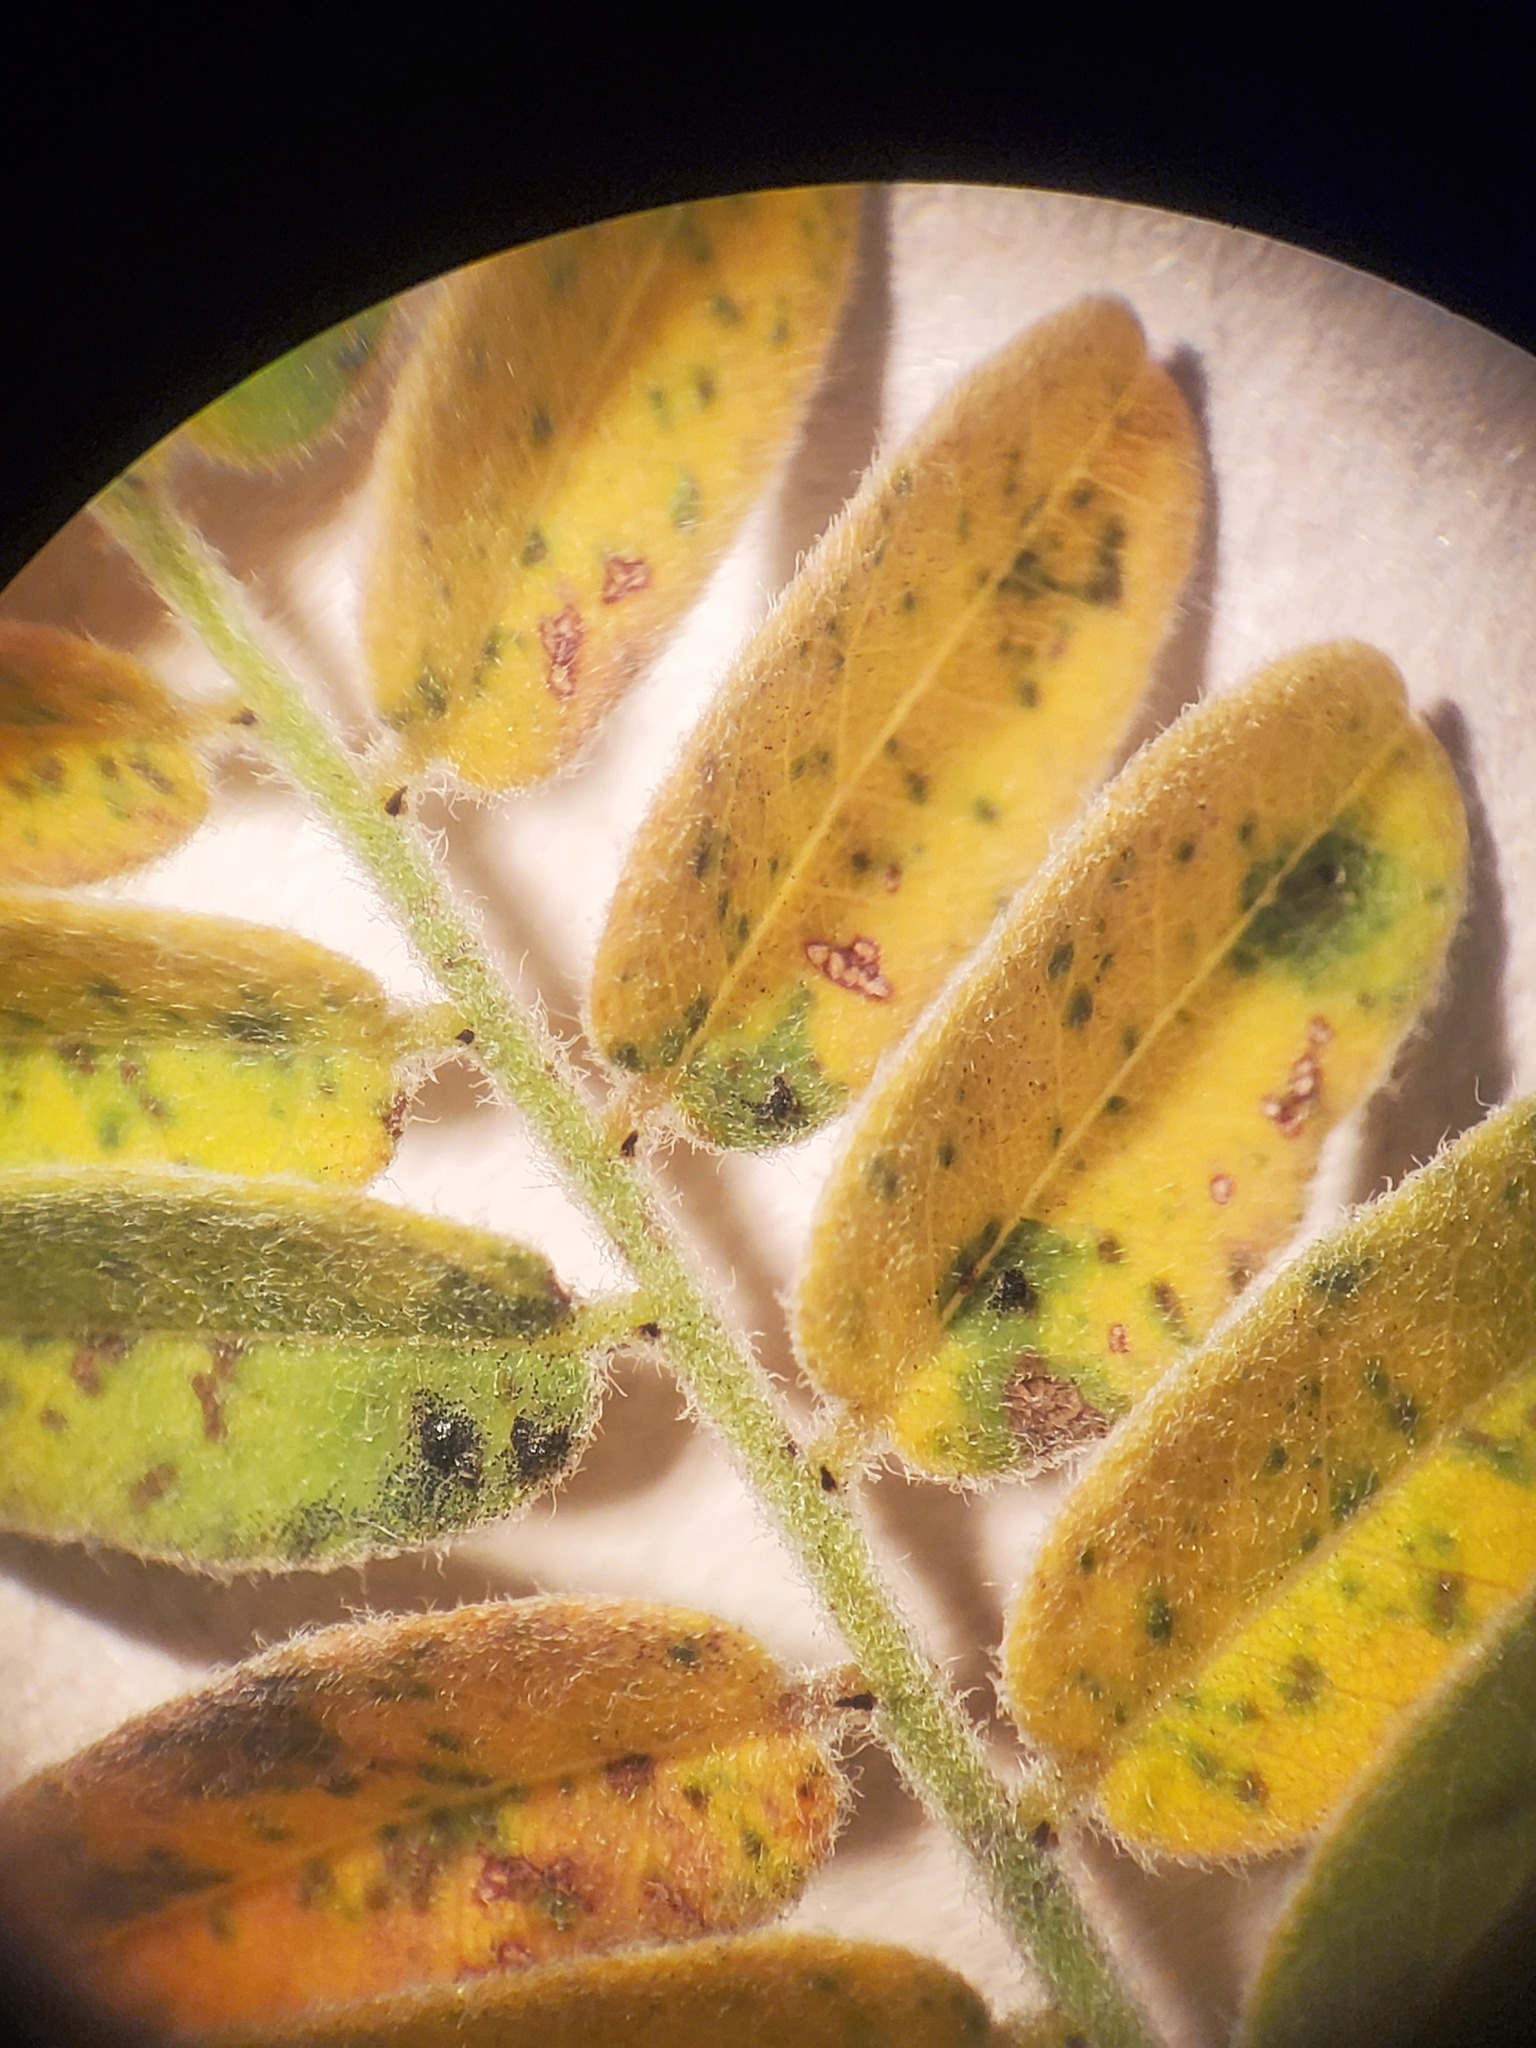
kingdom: Plantae
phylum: Tracheophyta
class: Magnoliopsida
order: Fabales
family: Fabaceae
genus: Amorpha
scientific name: Amorpha canescens
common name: Leadplant
